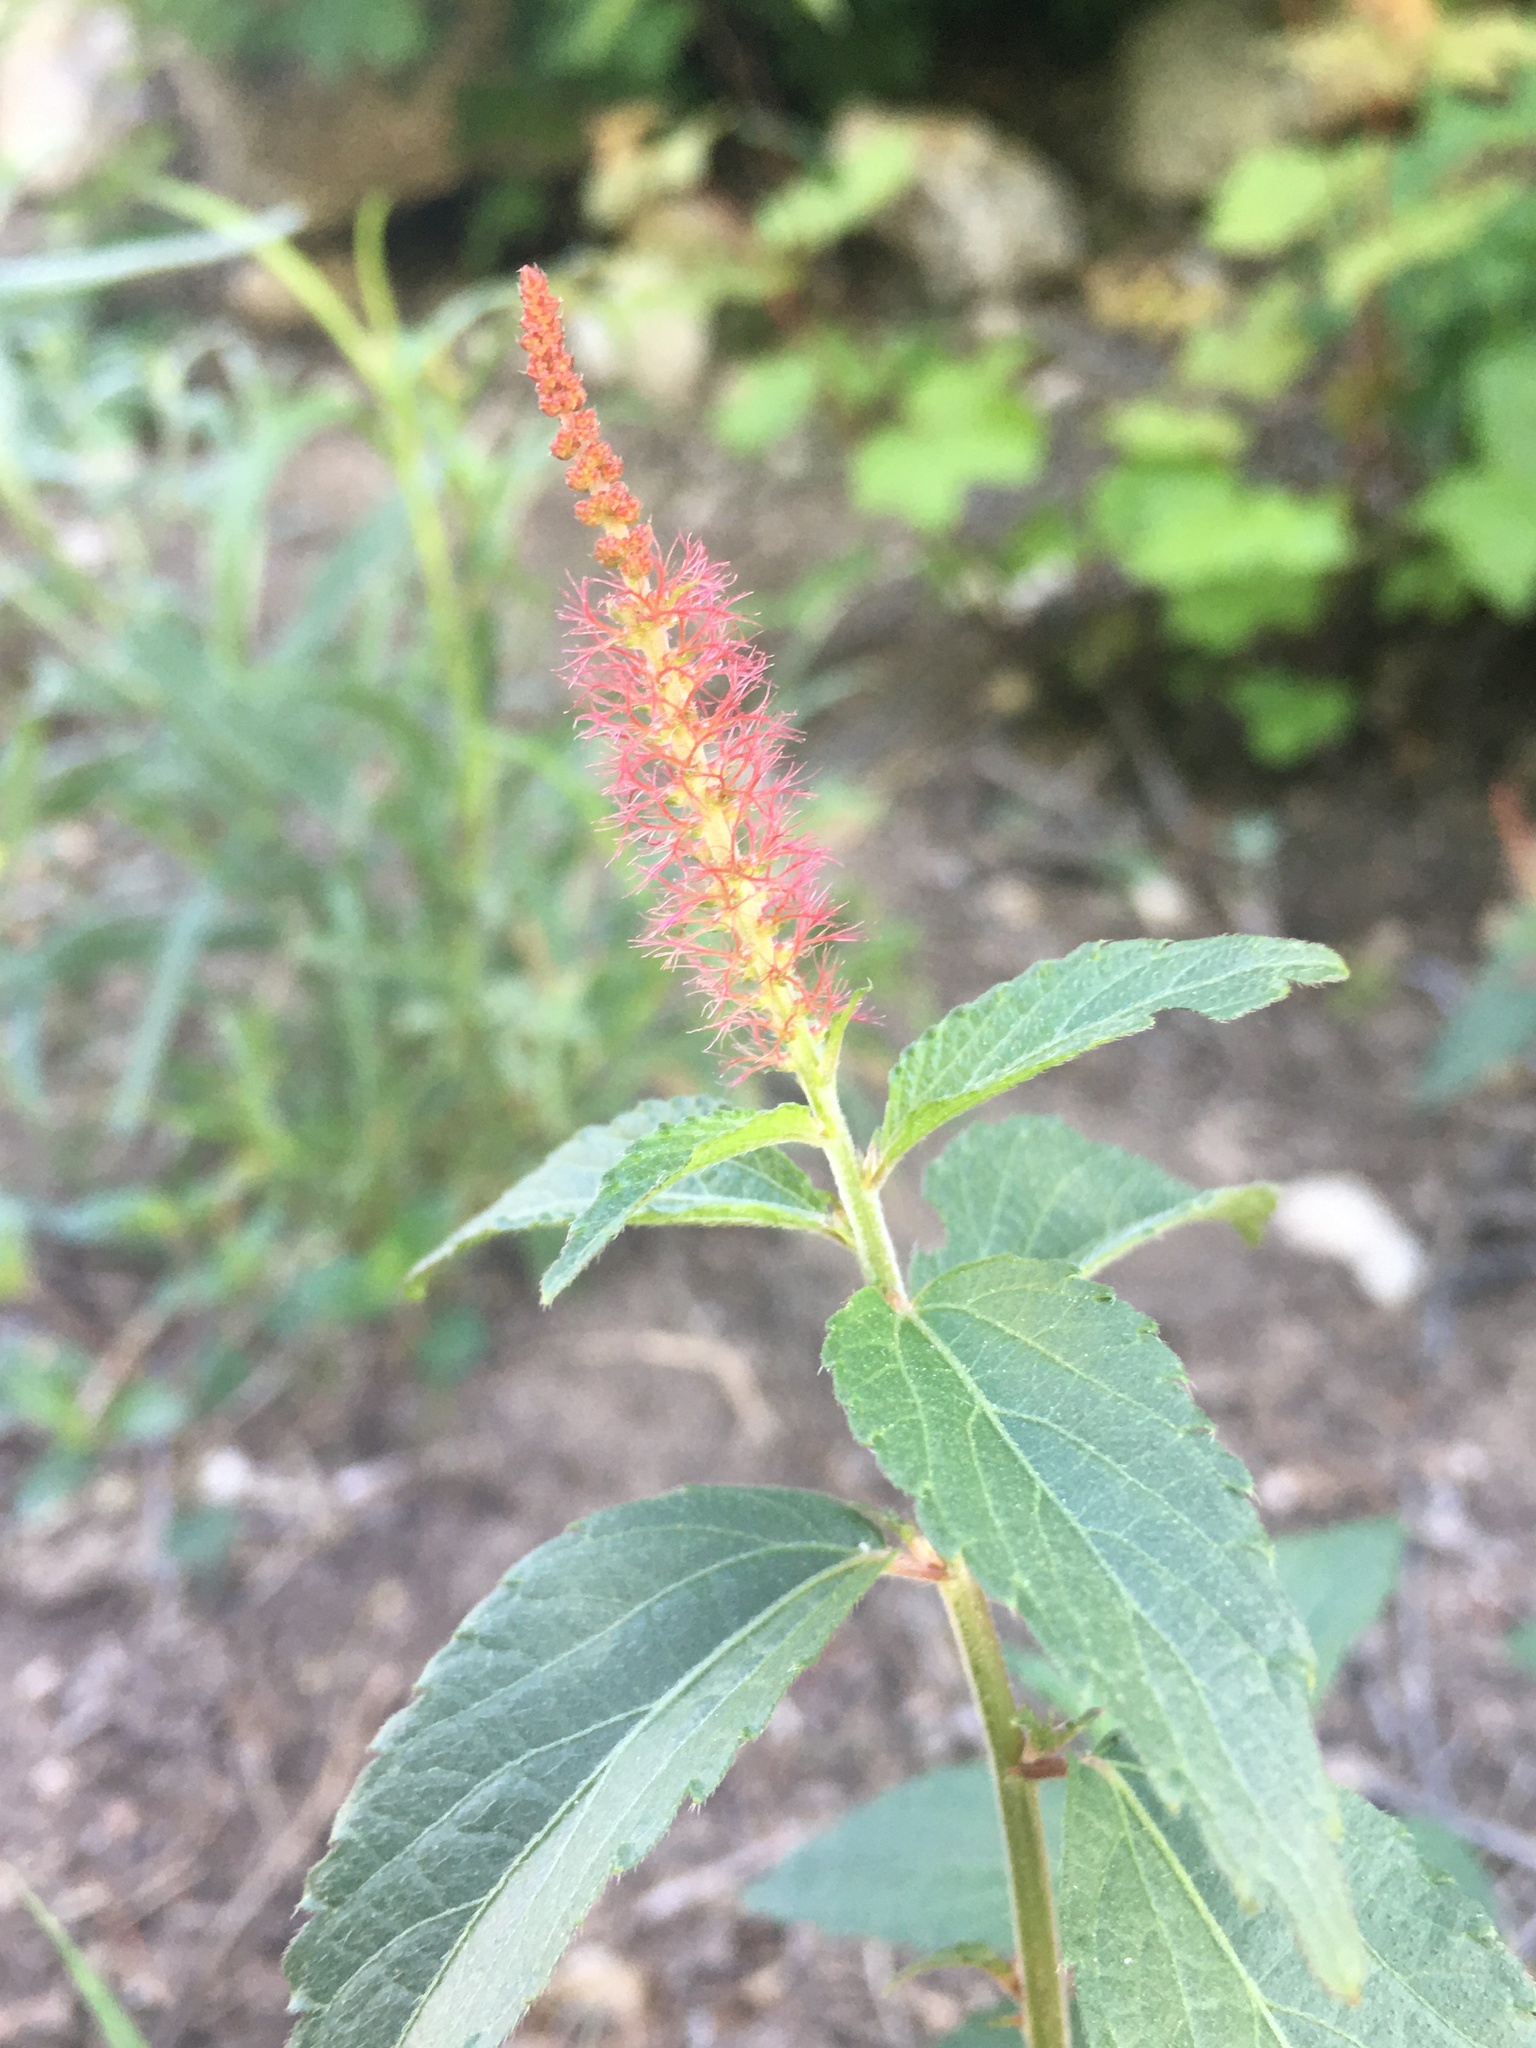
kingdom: Plantae
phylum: Tracheophyta
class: Magnoliopsida
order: Malpighiales
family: Euphorbiaceae
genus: Acalypha
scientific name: Acalypha phleoides
